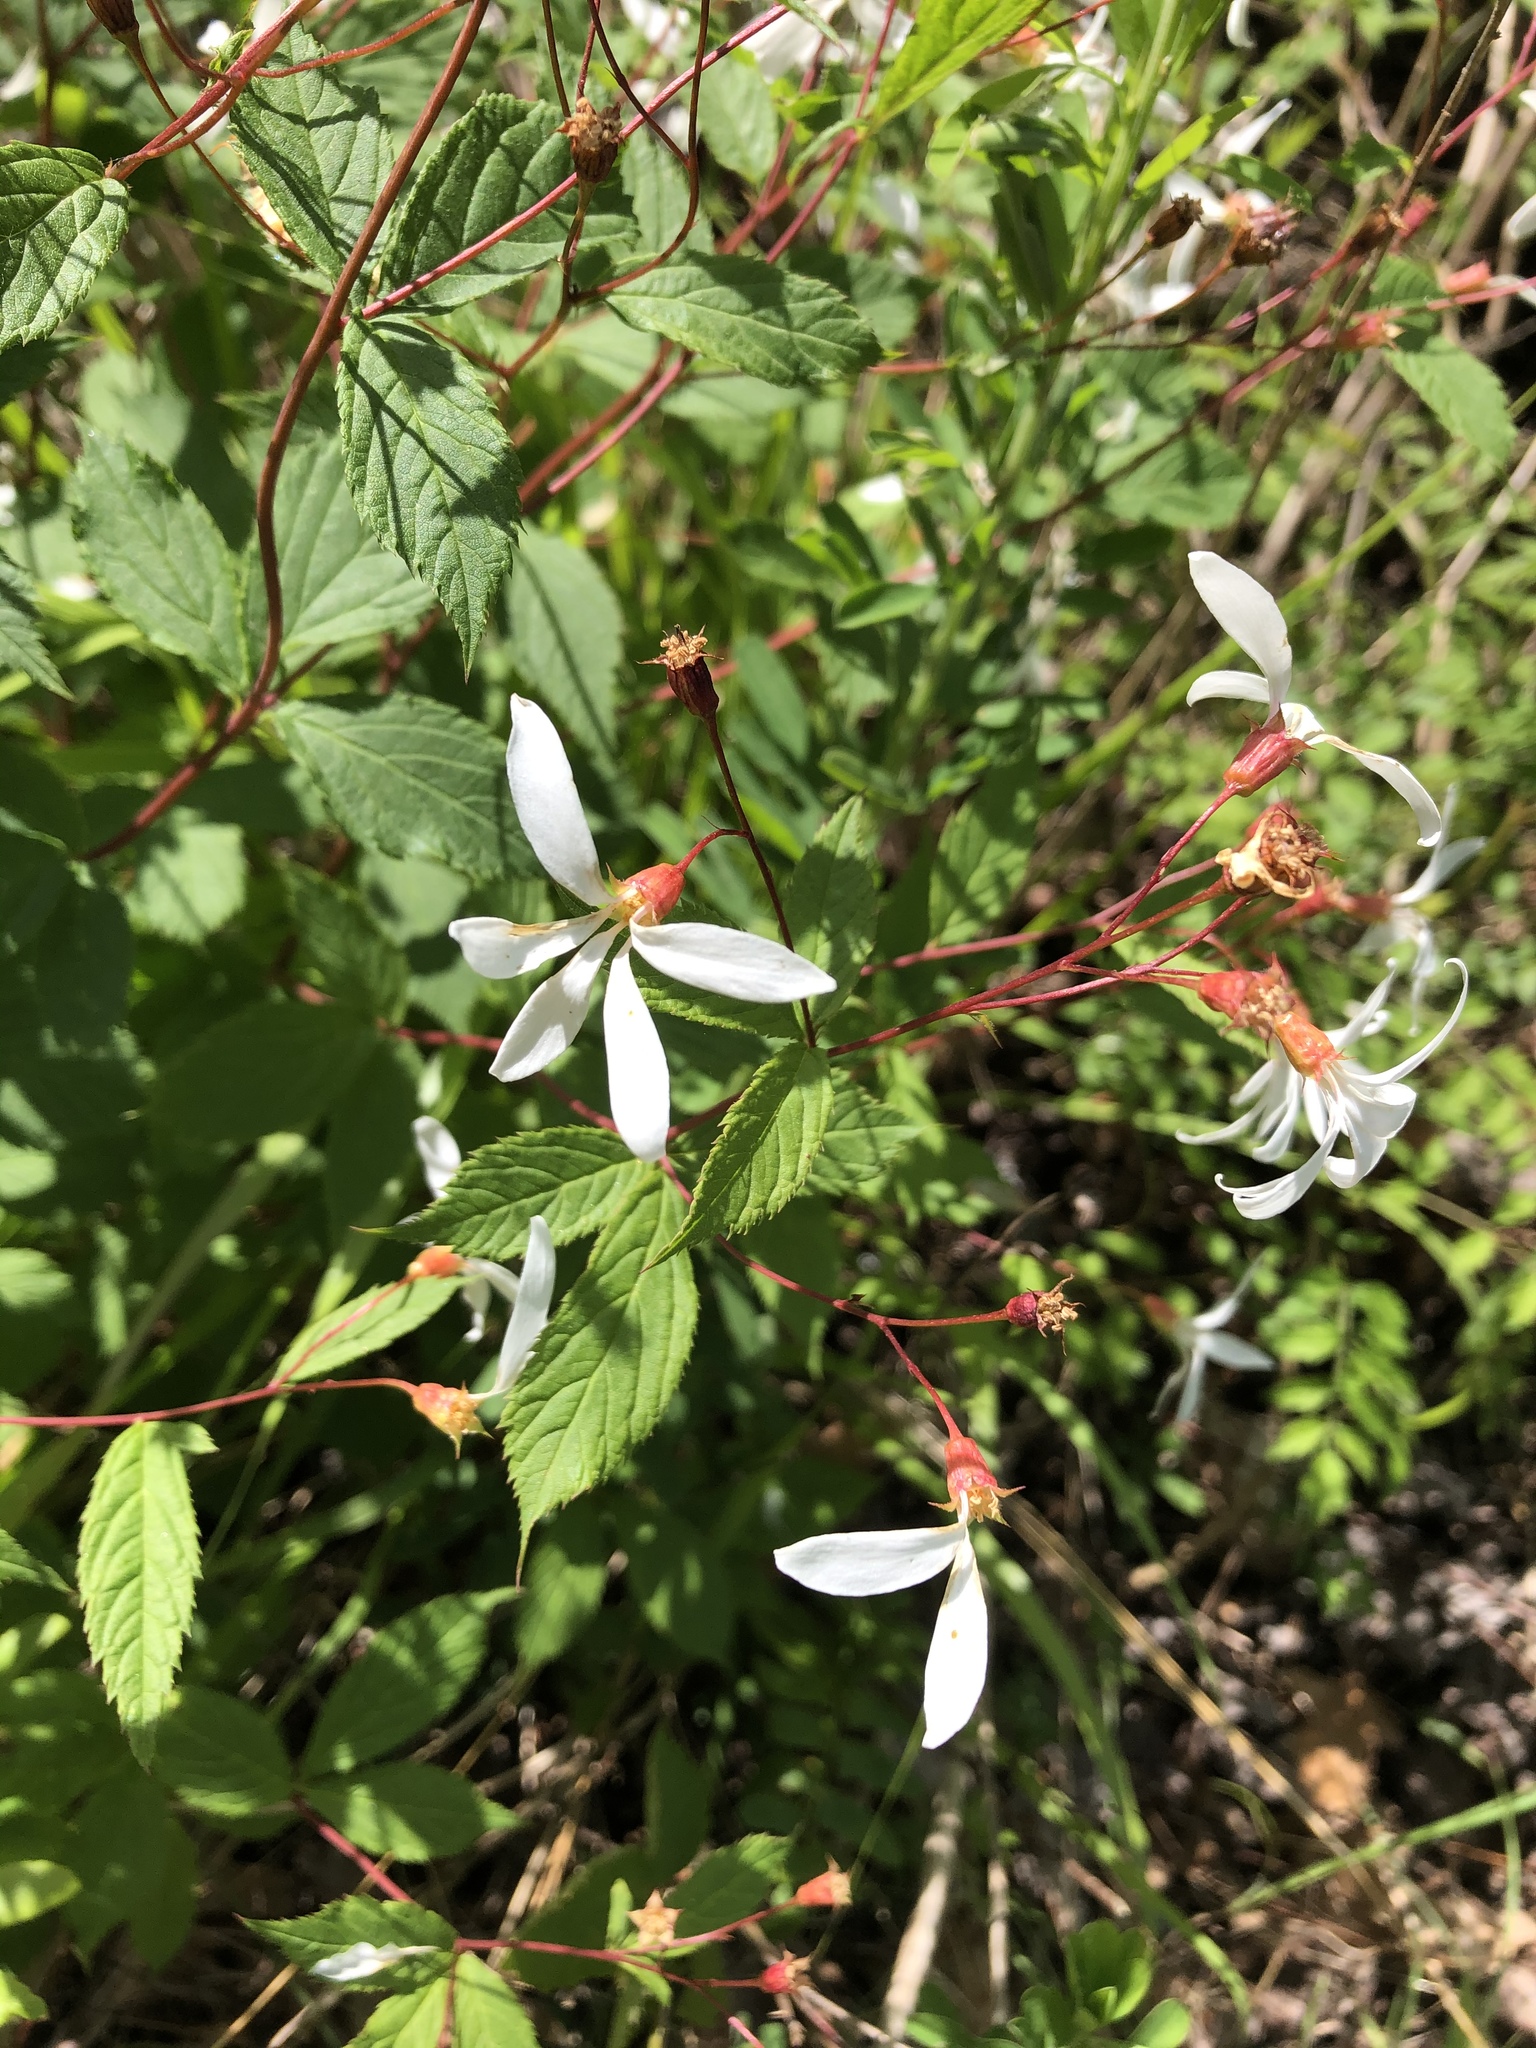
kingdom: Plantae
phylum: Tracheophyta
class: Magnoliopsida
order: Rosales
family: Rosaceae
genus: Gillenia
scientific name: Gillenia trifoliata
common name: Bowman's-root
